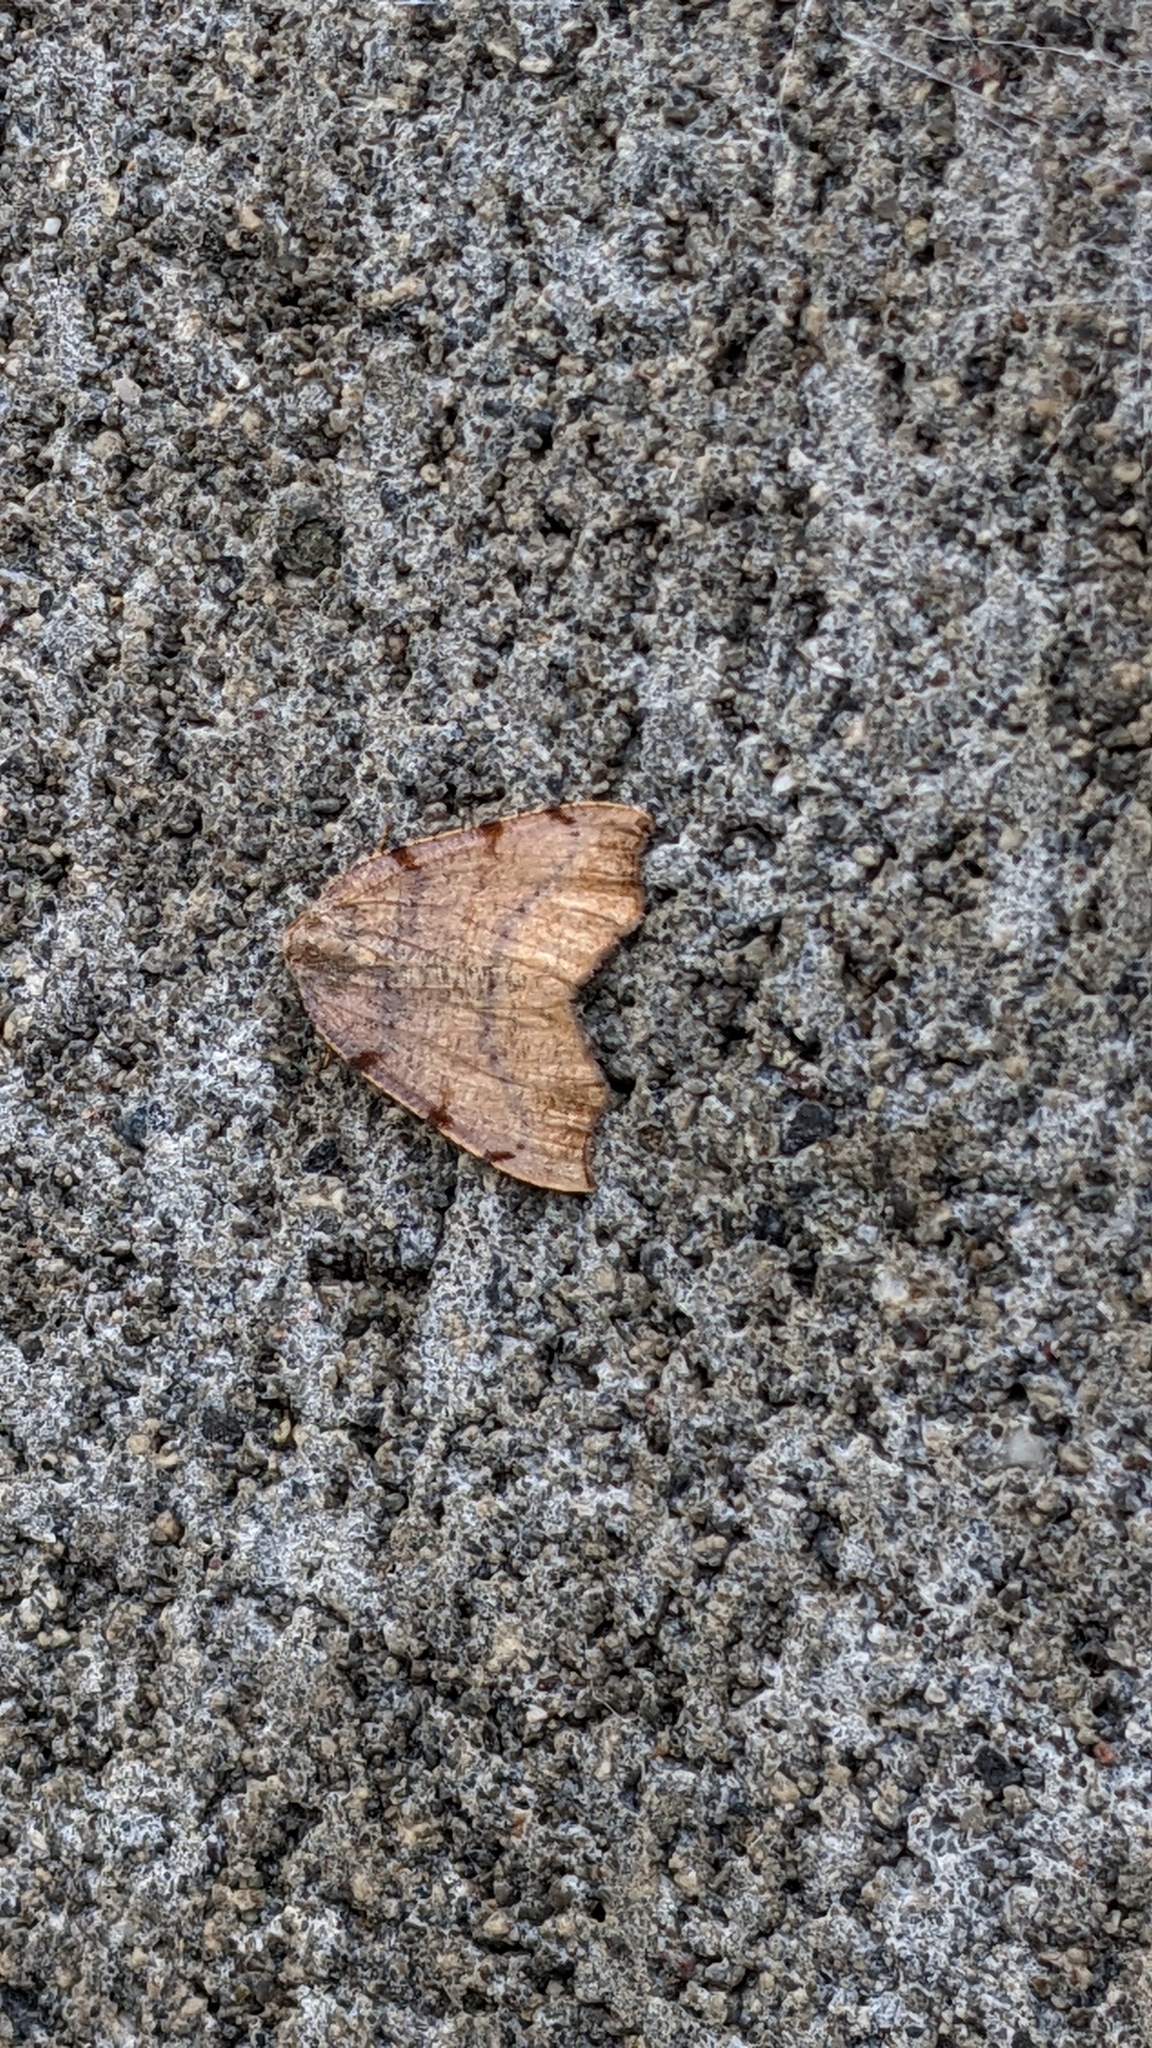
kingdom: Animalia
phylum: Arthropoda
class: Insecta
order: Lepidoptera
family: Geometridae
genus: Sestra
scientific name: Sestra flexata
